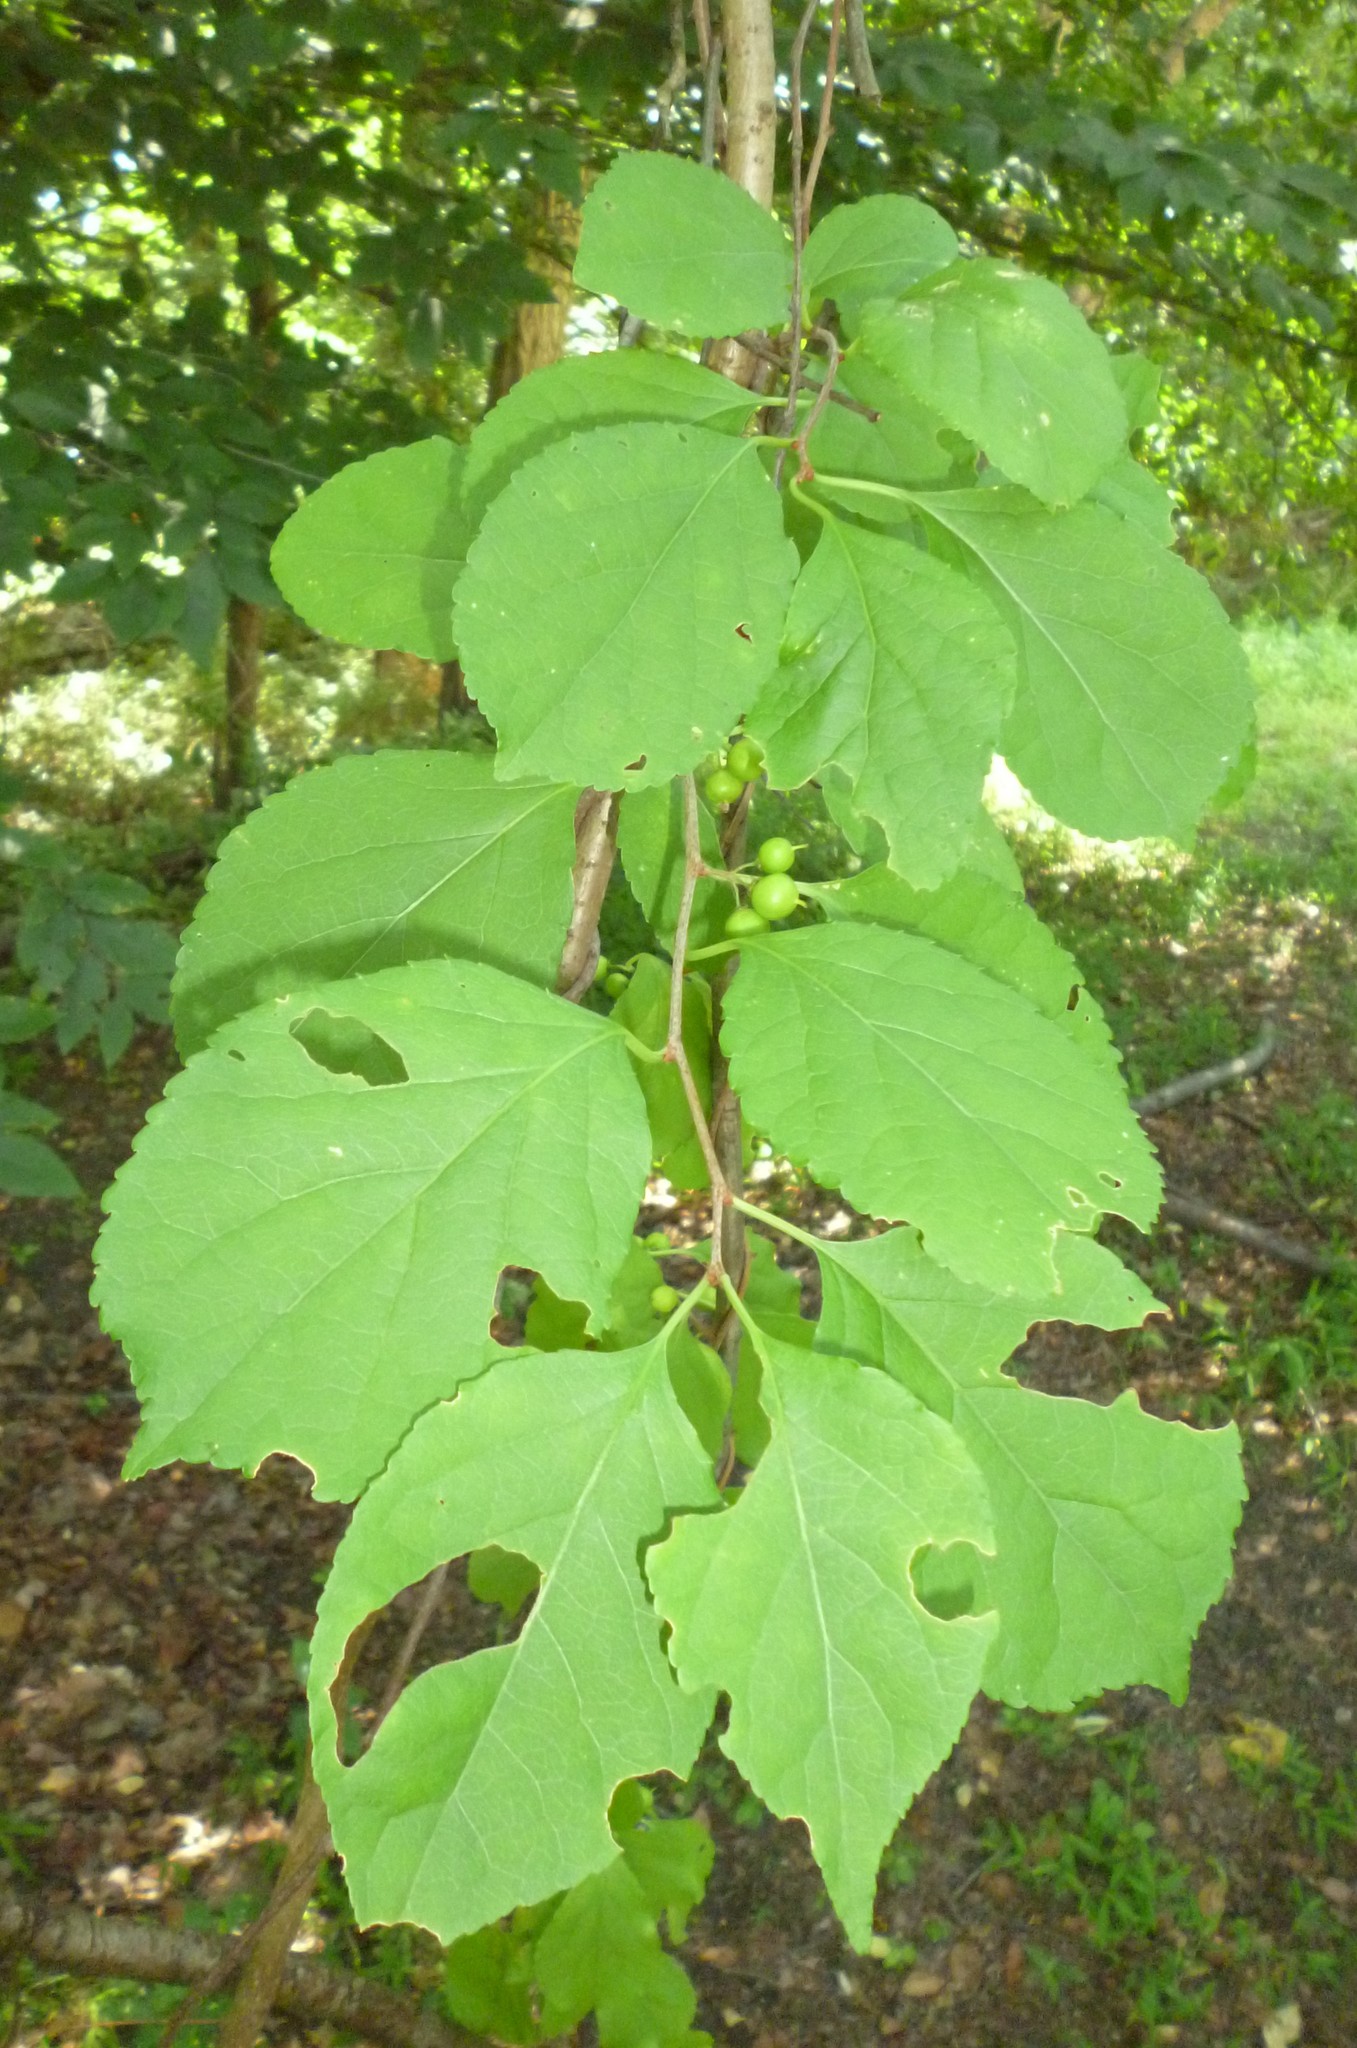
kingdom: Plantae
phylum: Tracheophyta
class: Magnoliopsida
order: Celastrales
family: Celastraceae
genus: Celastrus
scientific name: Celastrus orbiculatus
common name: Oriental bittersweet
